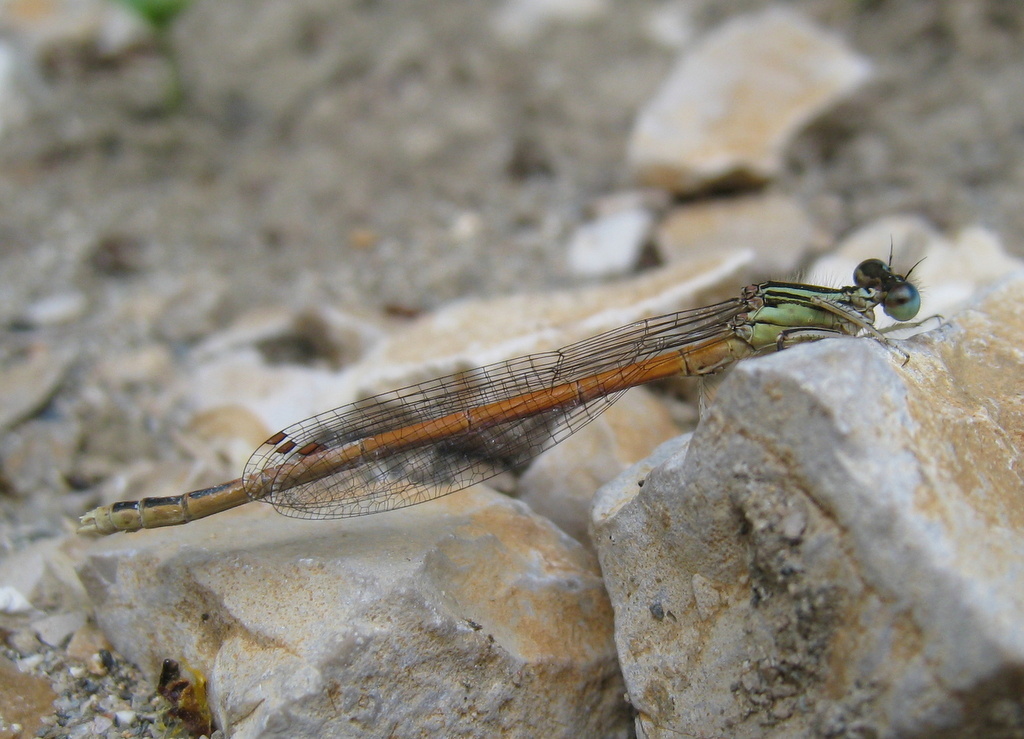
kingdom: Animalia
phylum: Arthropoda
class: Insecta
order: Odonata
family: Platycnemididae
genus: Platycnemis
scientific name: Platycnemis acutipennis
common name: Orange featherleg
